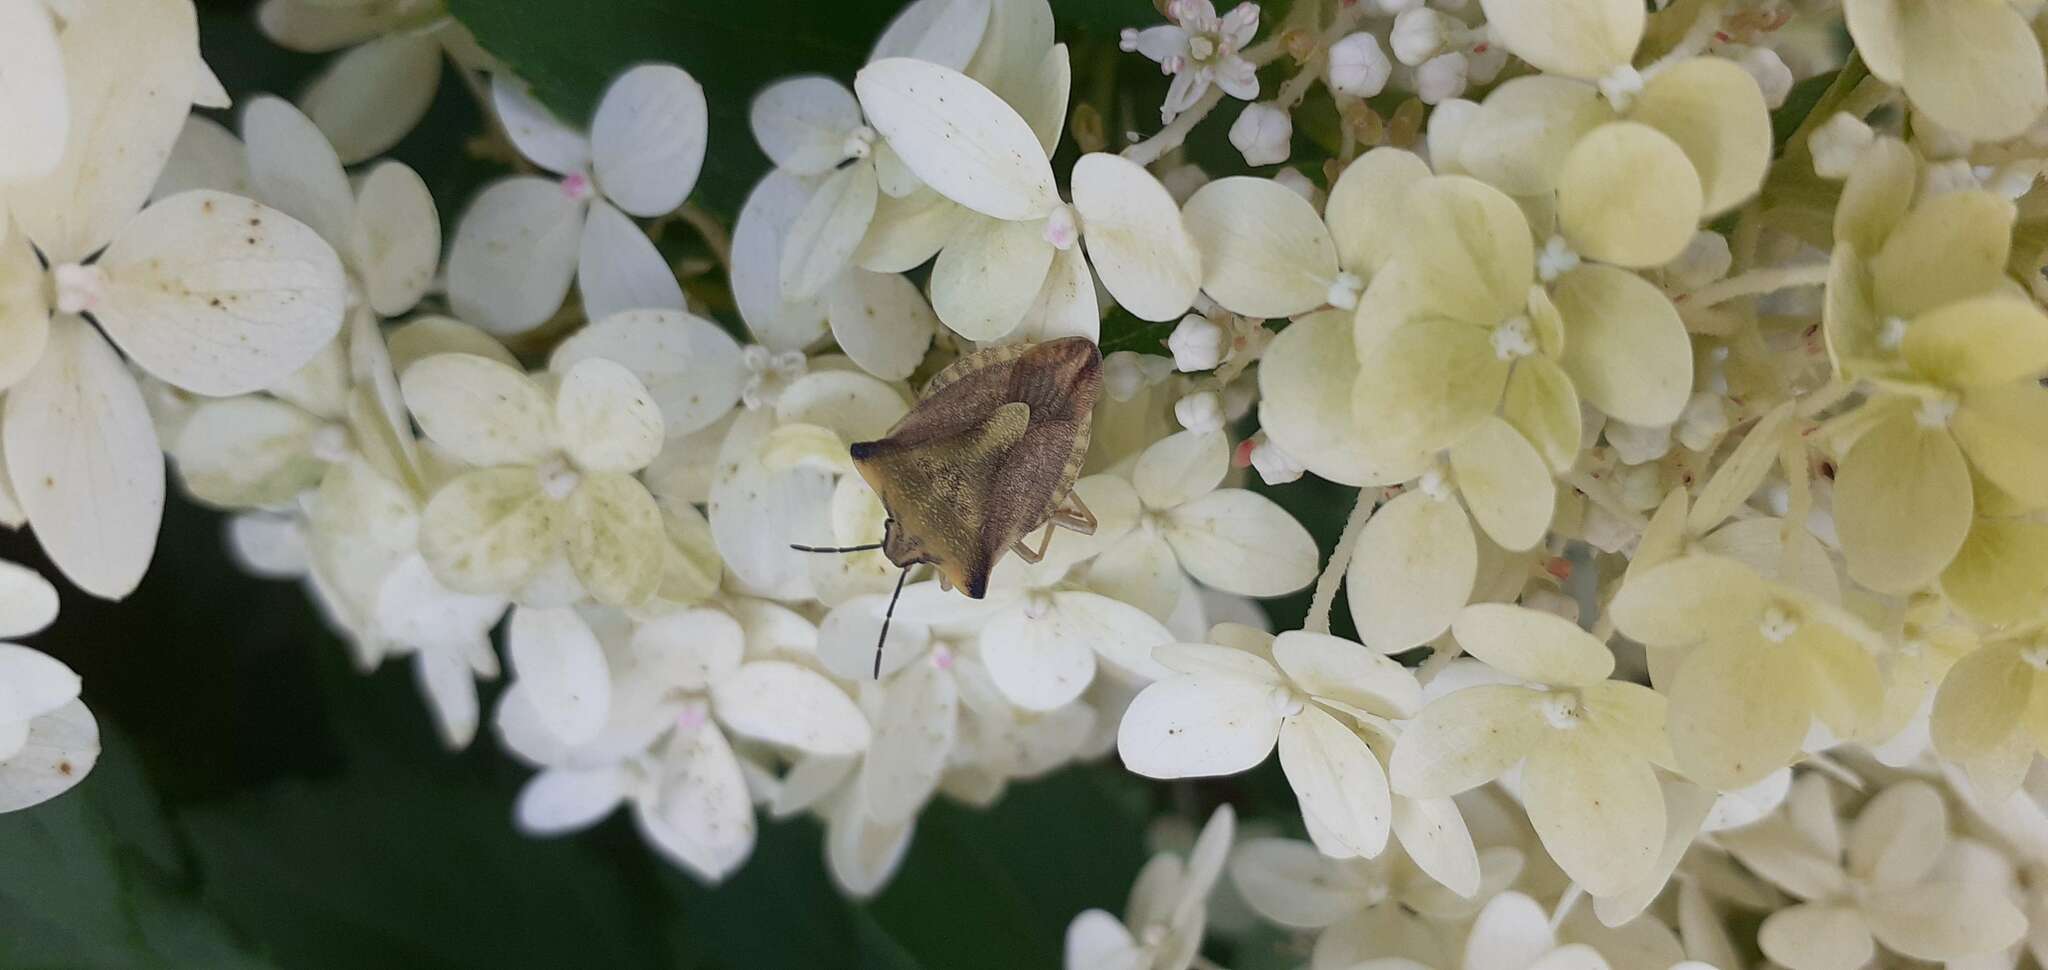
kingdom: Animalia
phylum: Arthropoda
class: Insecta
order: Hemiptera
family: Pentatomidae
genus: Carpocoris
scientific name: Carpocoris fuscispinus
